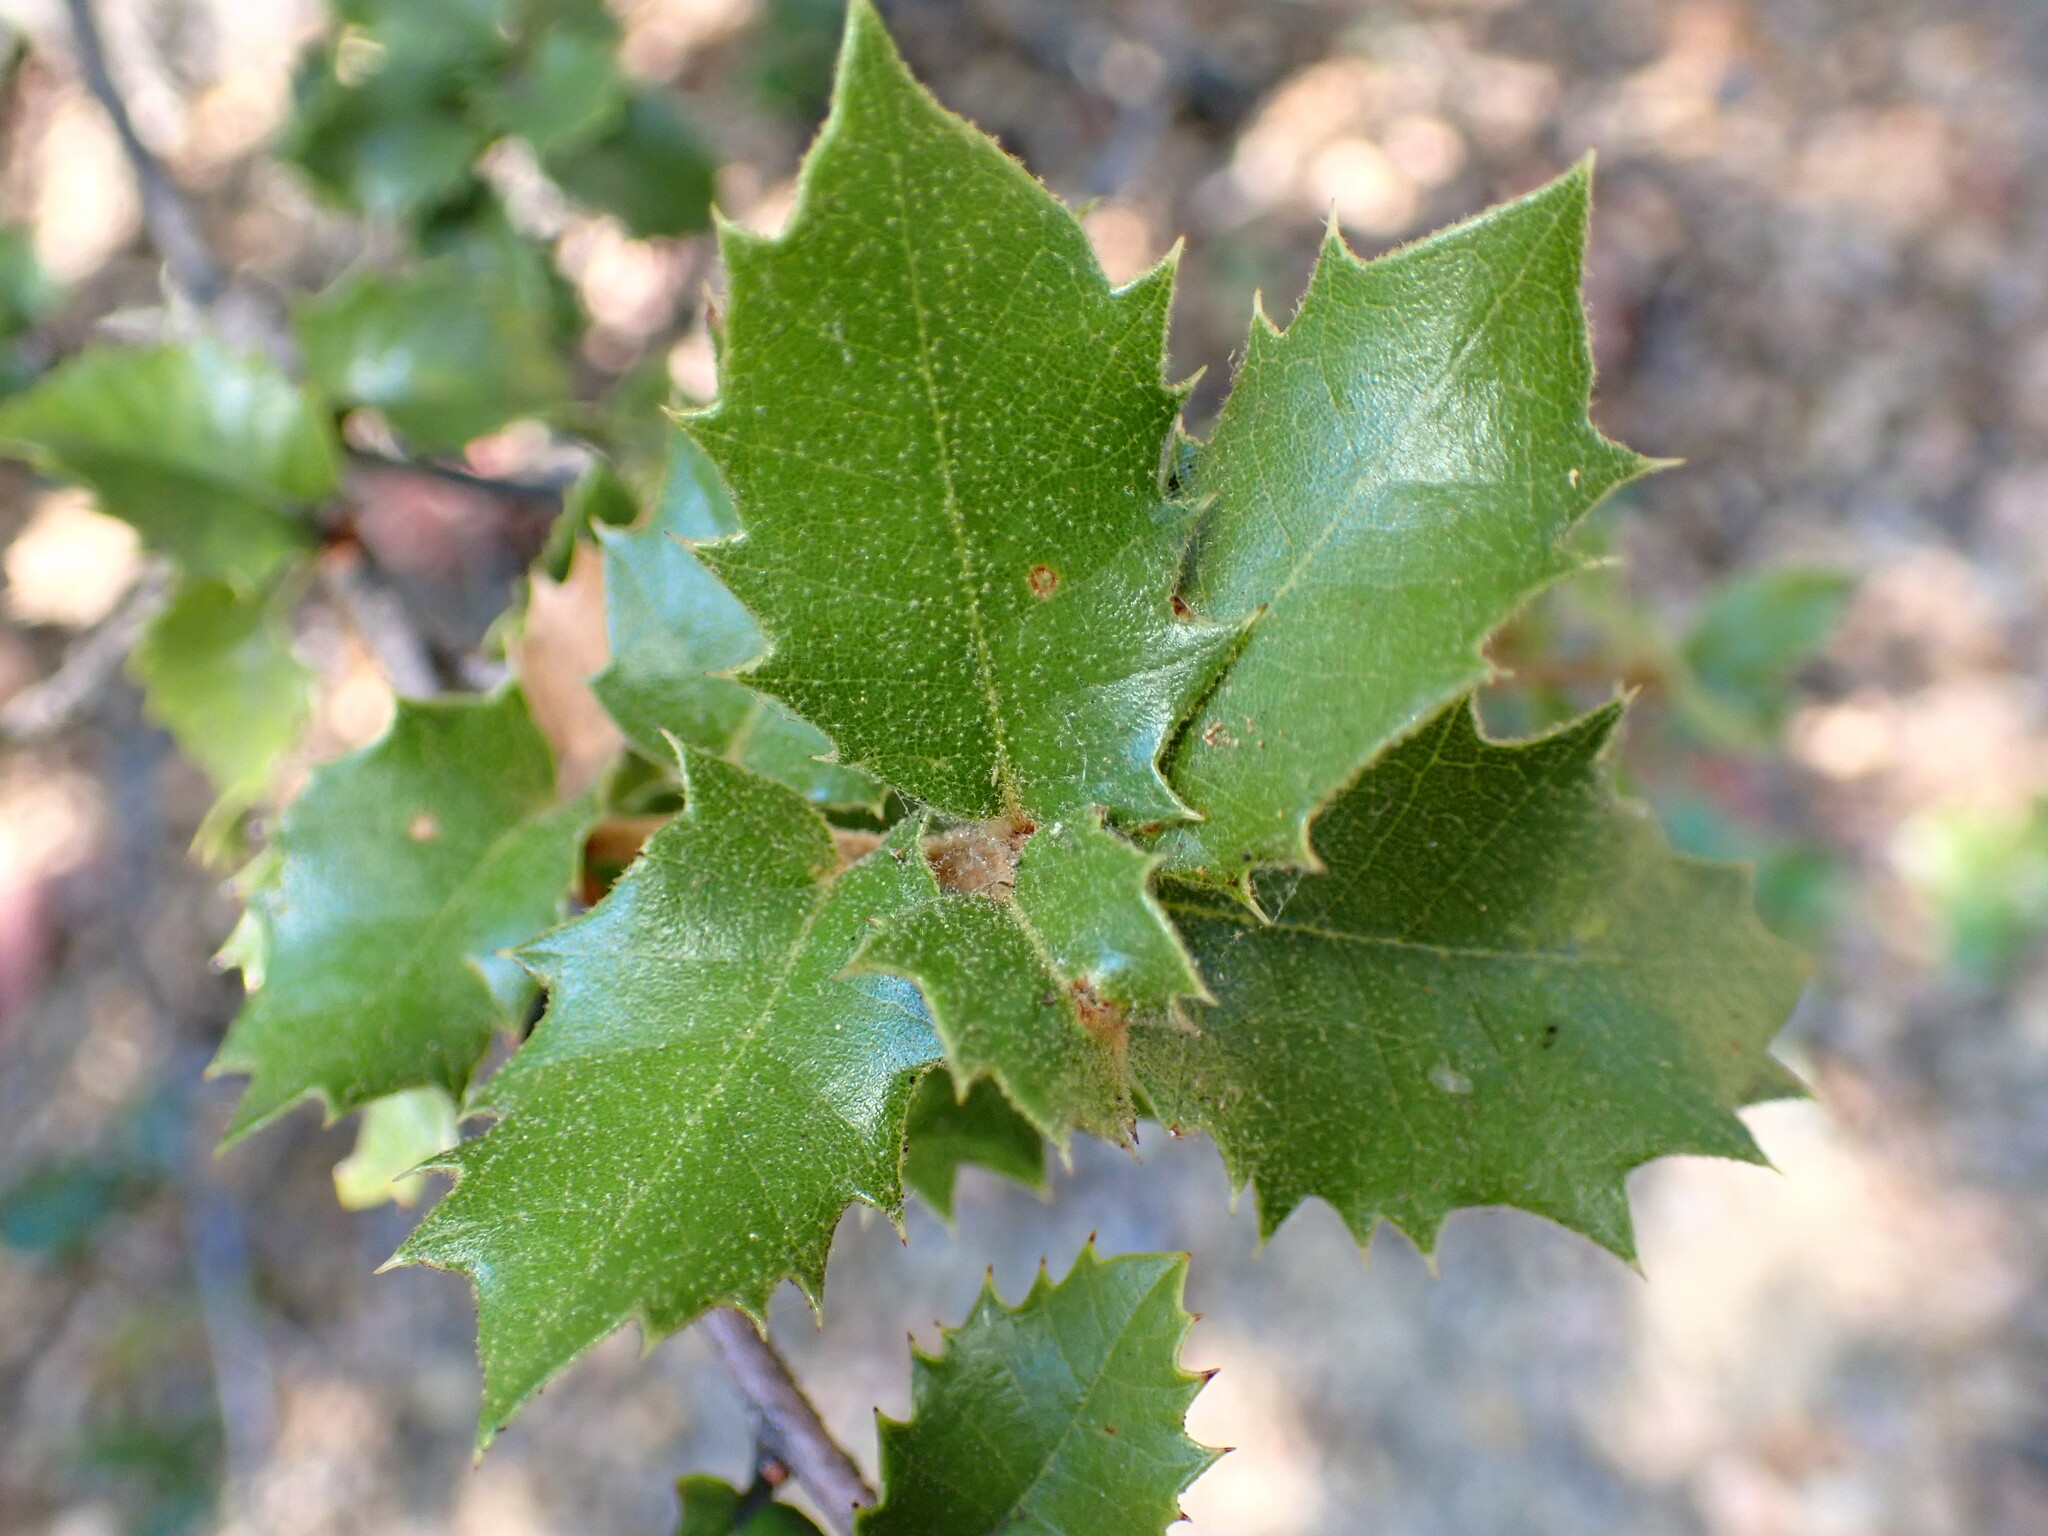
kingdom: Plantae
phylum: Tracheophyta
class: Magnoliopsida
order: Fagales
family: Fagaceae
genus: Quercus
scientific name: Quercus chrysolepis
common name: Canyon live oak
